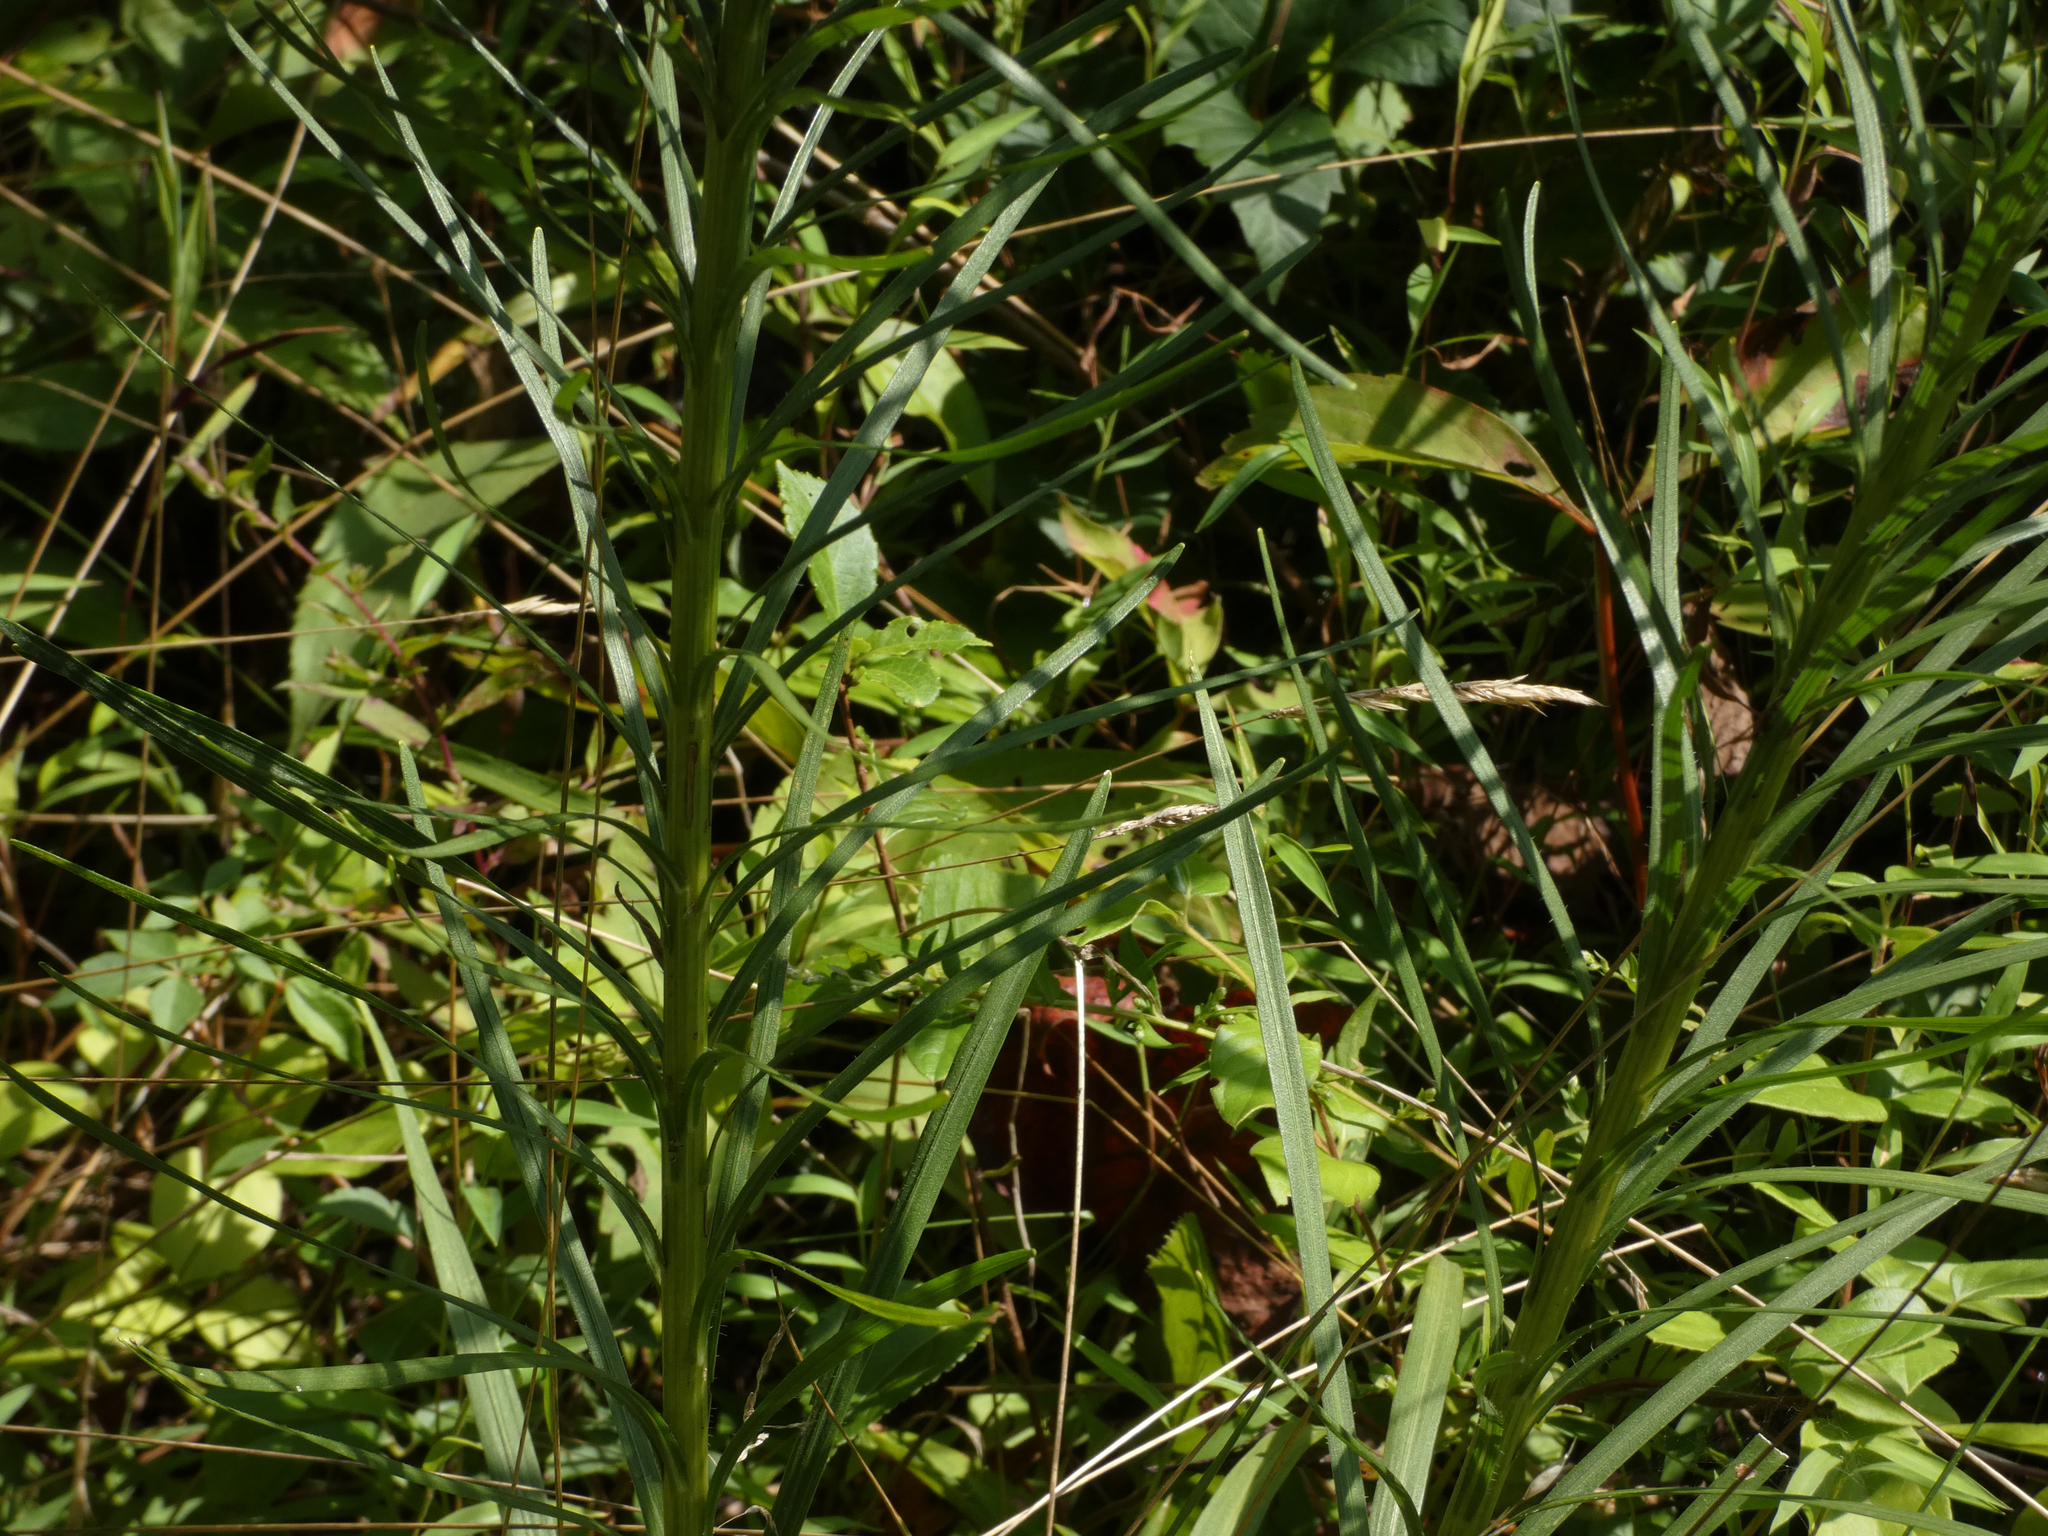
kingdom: Plantae
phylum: Tracheophyta
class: Magnoliopsida
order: Asterales
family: Asteraceae
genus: Liatris
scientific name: Liatris spicata
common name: Florist gayfeather
